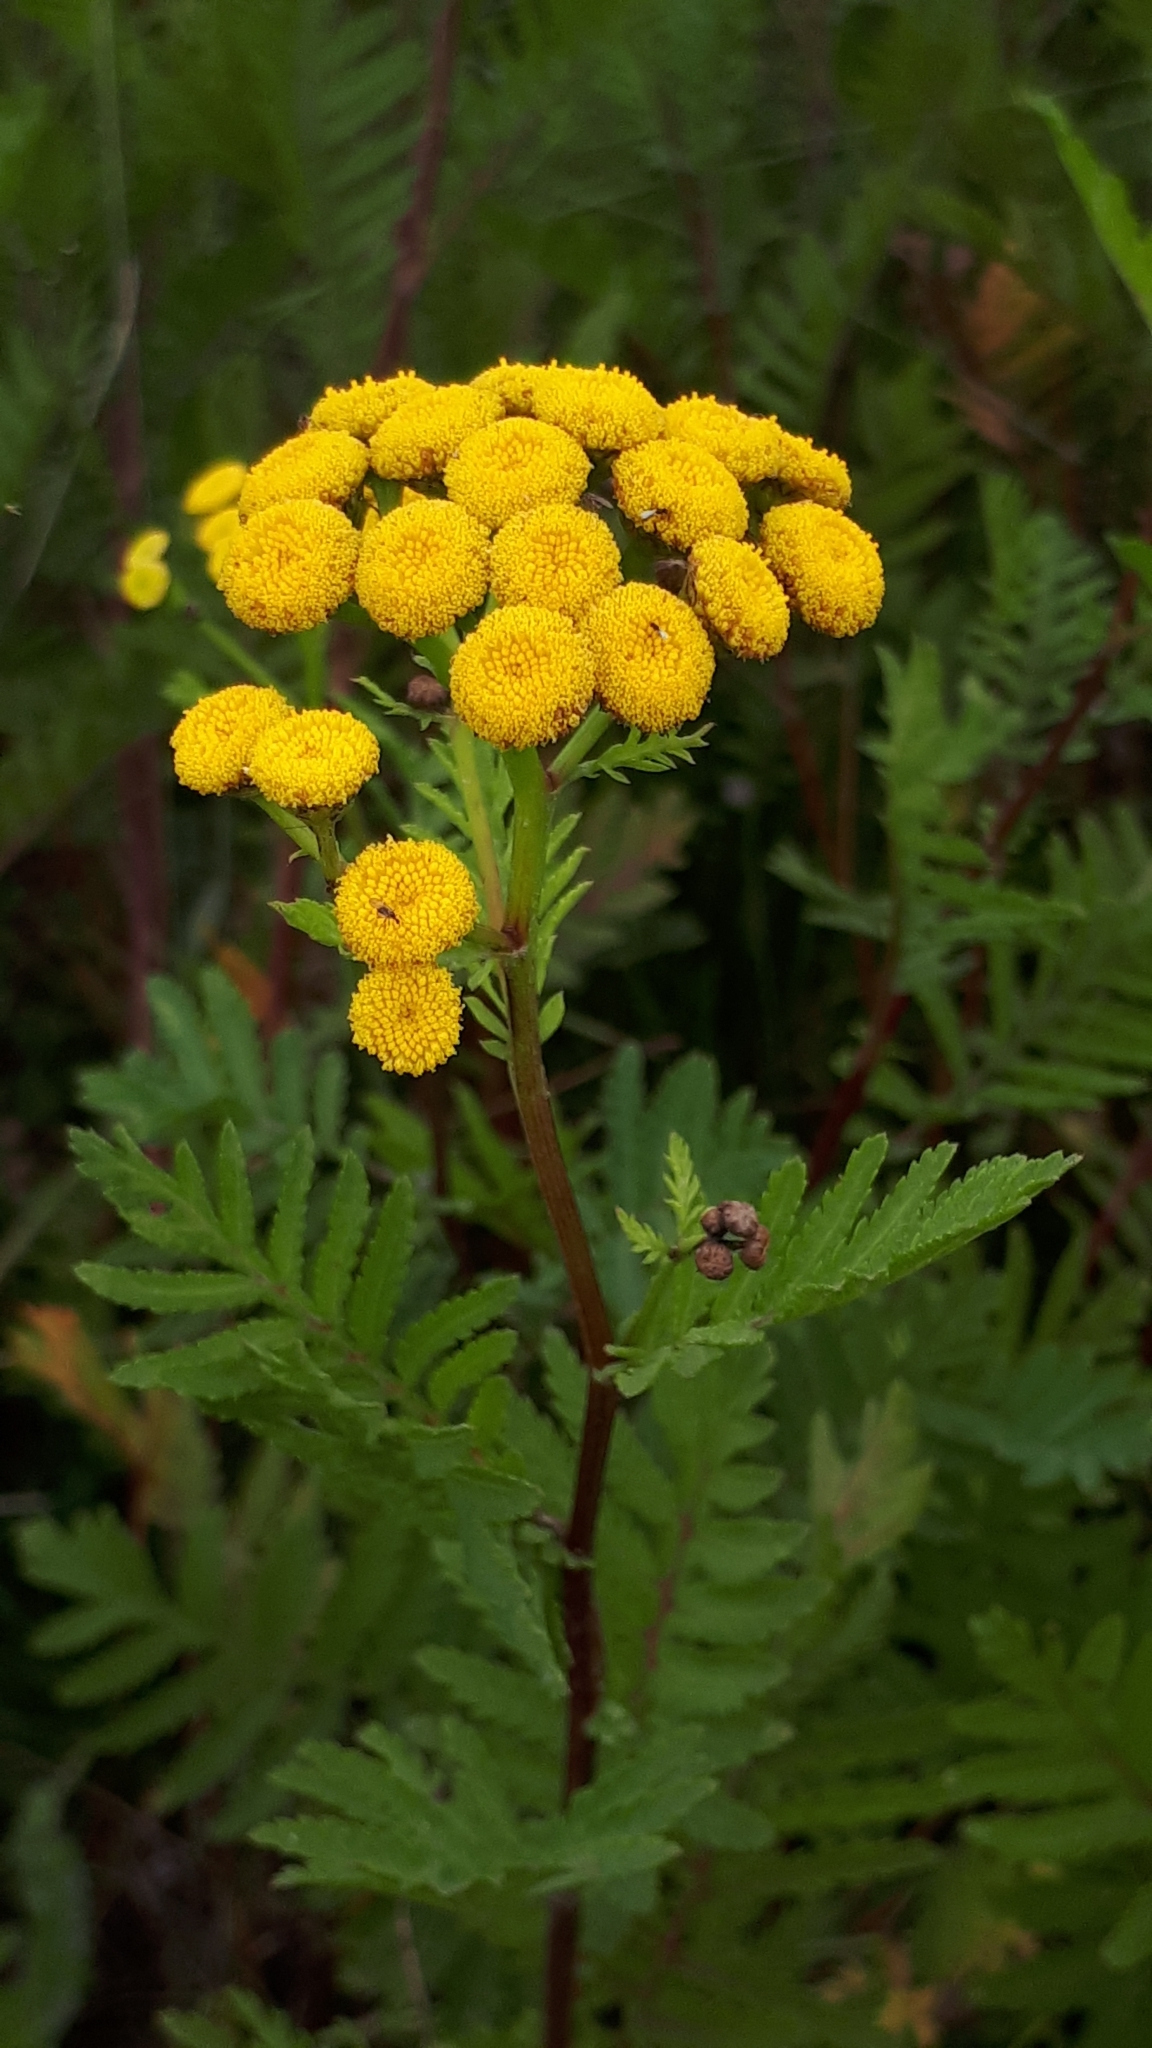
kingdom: Plantae
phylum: Tracheophyta
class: Magnoliopsida
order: Asterales
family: Asteraceae
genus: Tanacetum
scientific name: Tanacetum vulgare
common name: Common tansy
